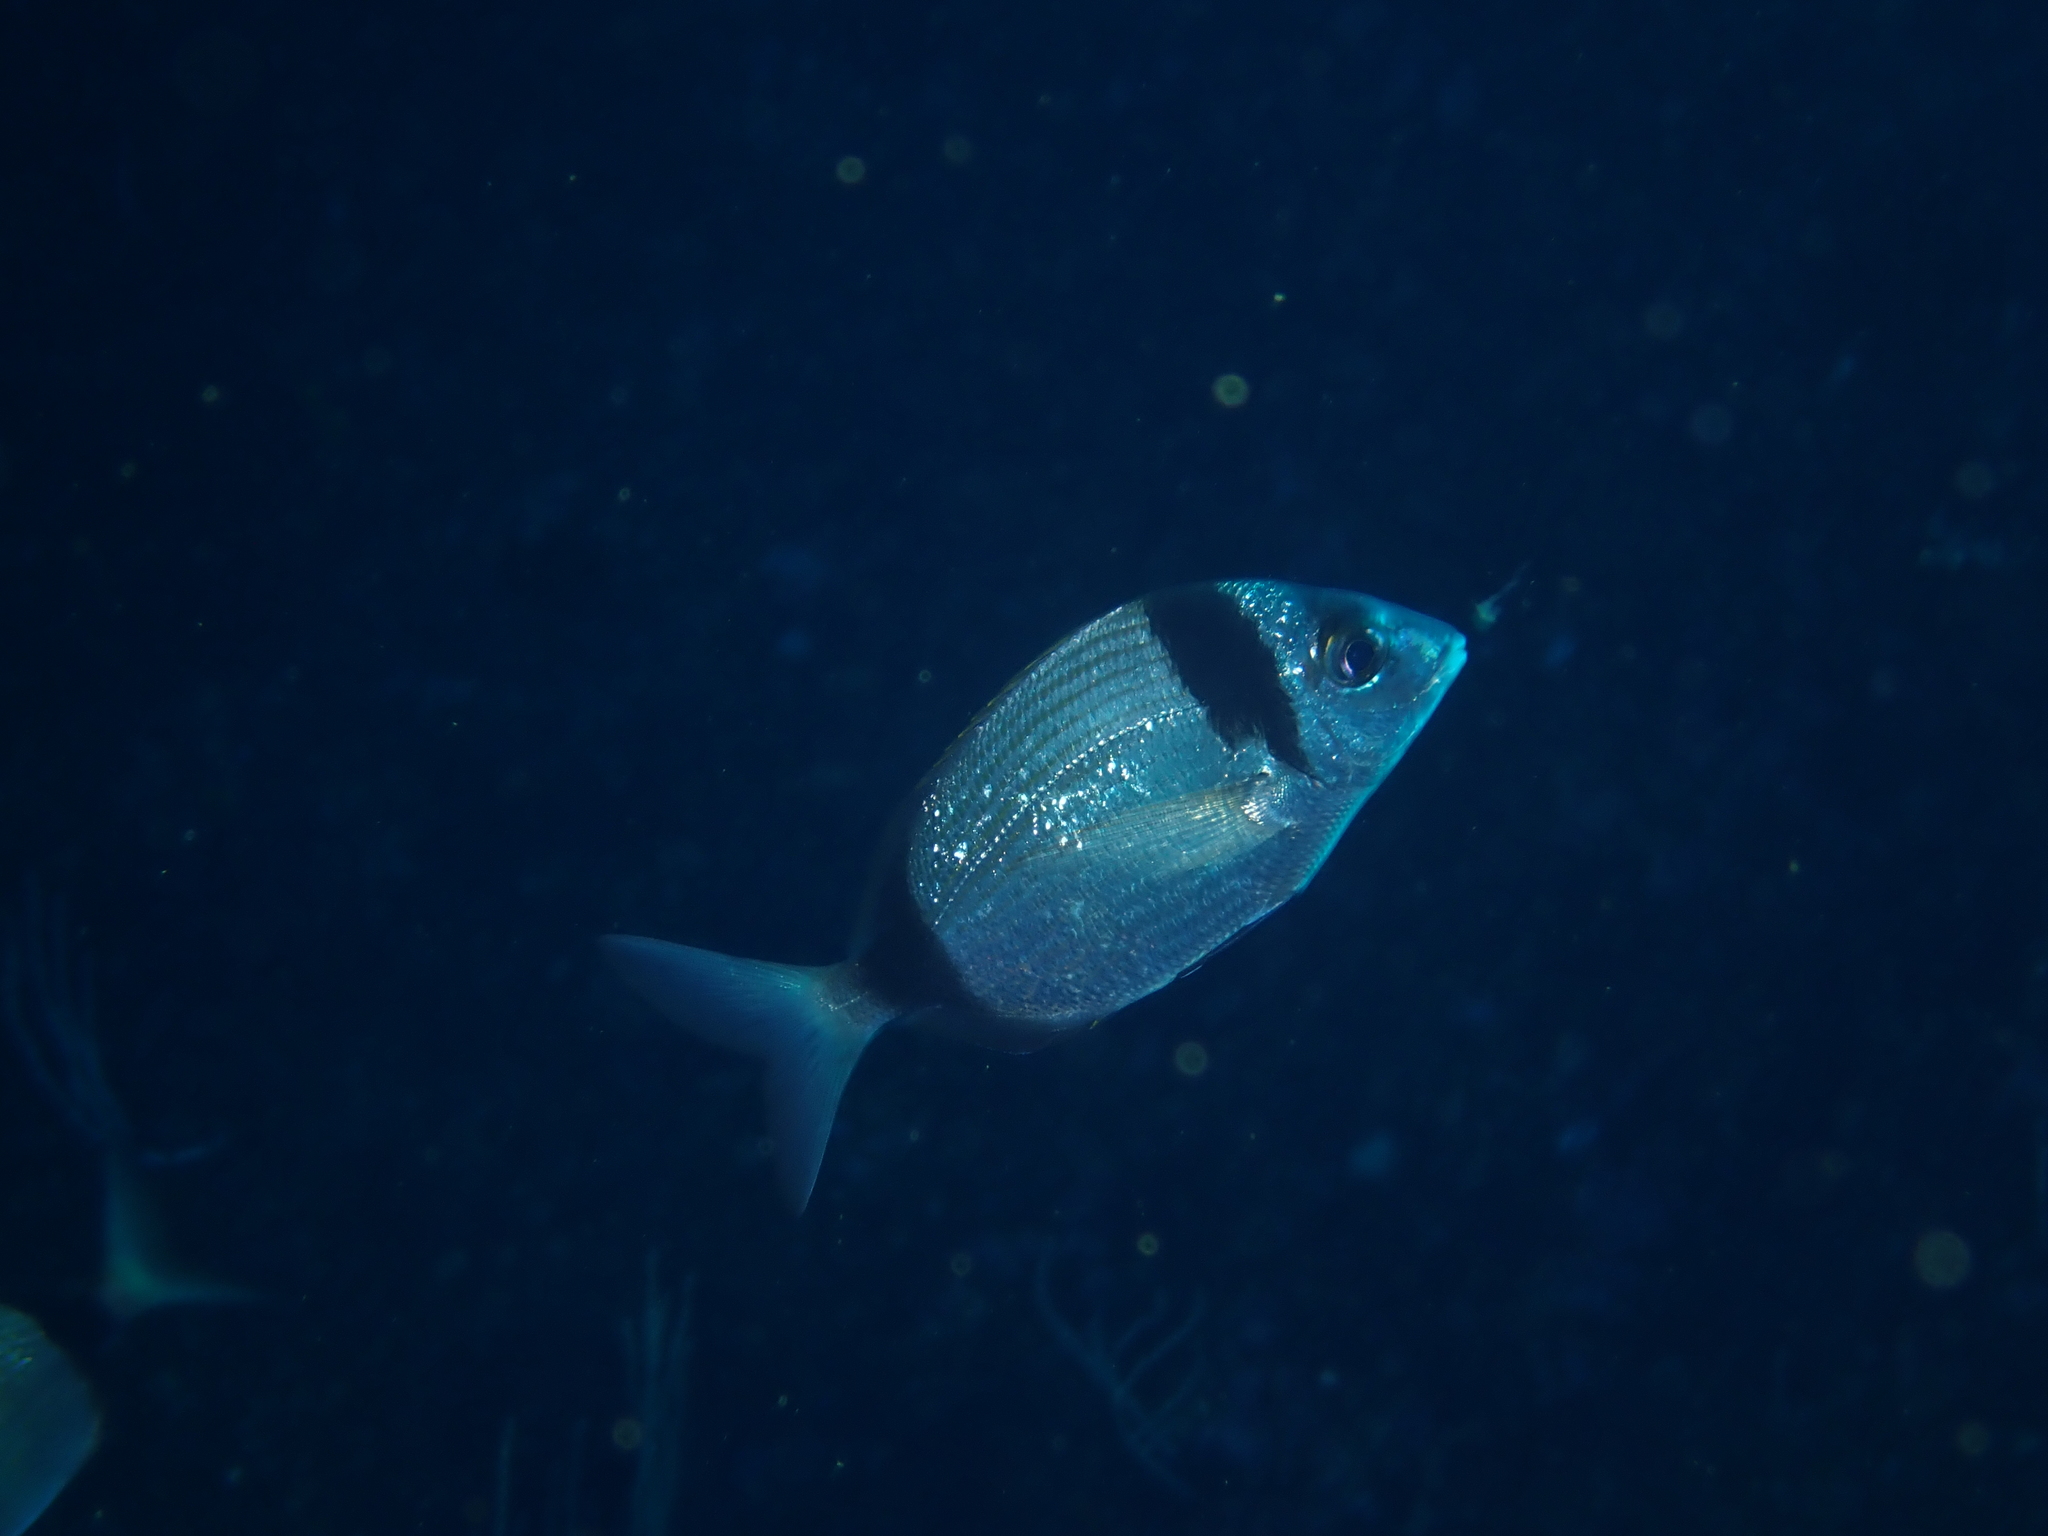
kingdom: Animalia
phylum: Chordata
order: Perciformes
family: Sparidae
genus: Diplodus
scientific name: Diplodus vulgaris
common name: Common two-banded seabream
